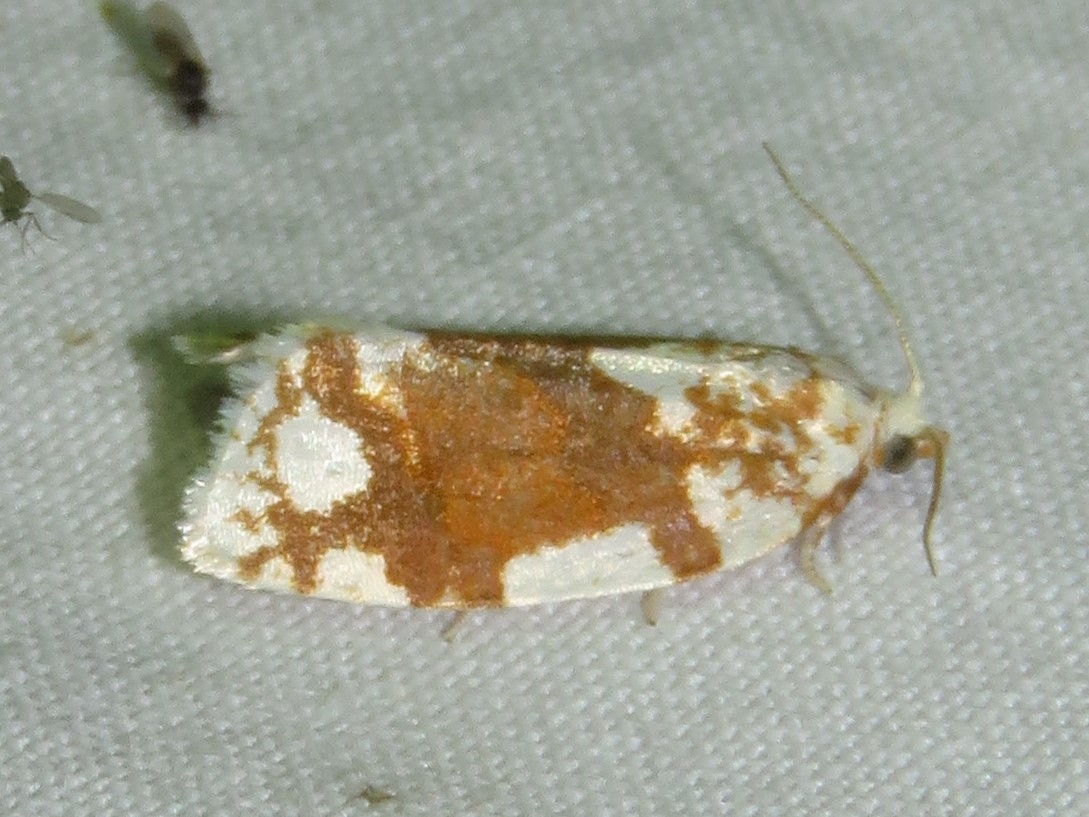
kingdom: Animalia
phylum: Arthropoda
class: Insecta
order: Lepidoptera
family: Tortricidae
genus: Argyrotaenia
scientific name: Argyrotaenia alisellana
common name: White-spotted leafroller moth
